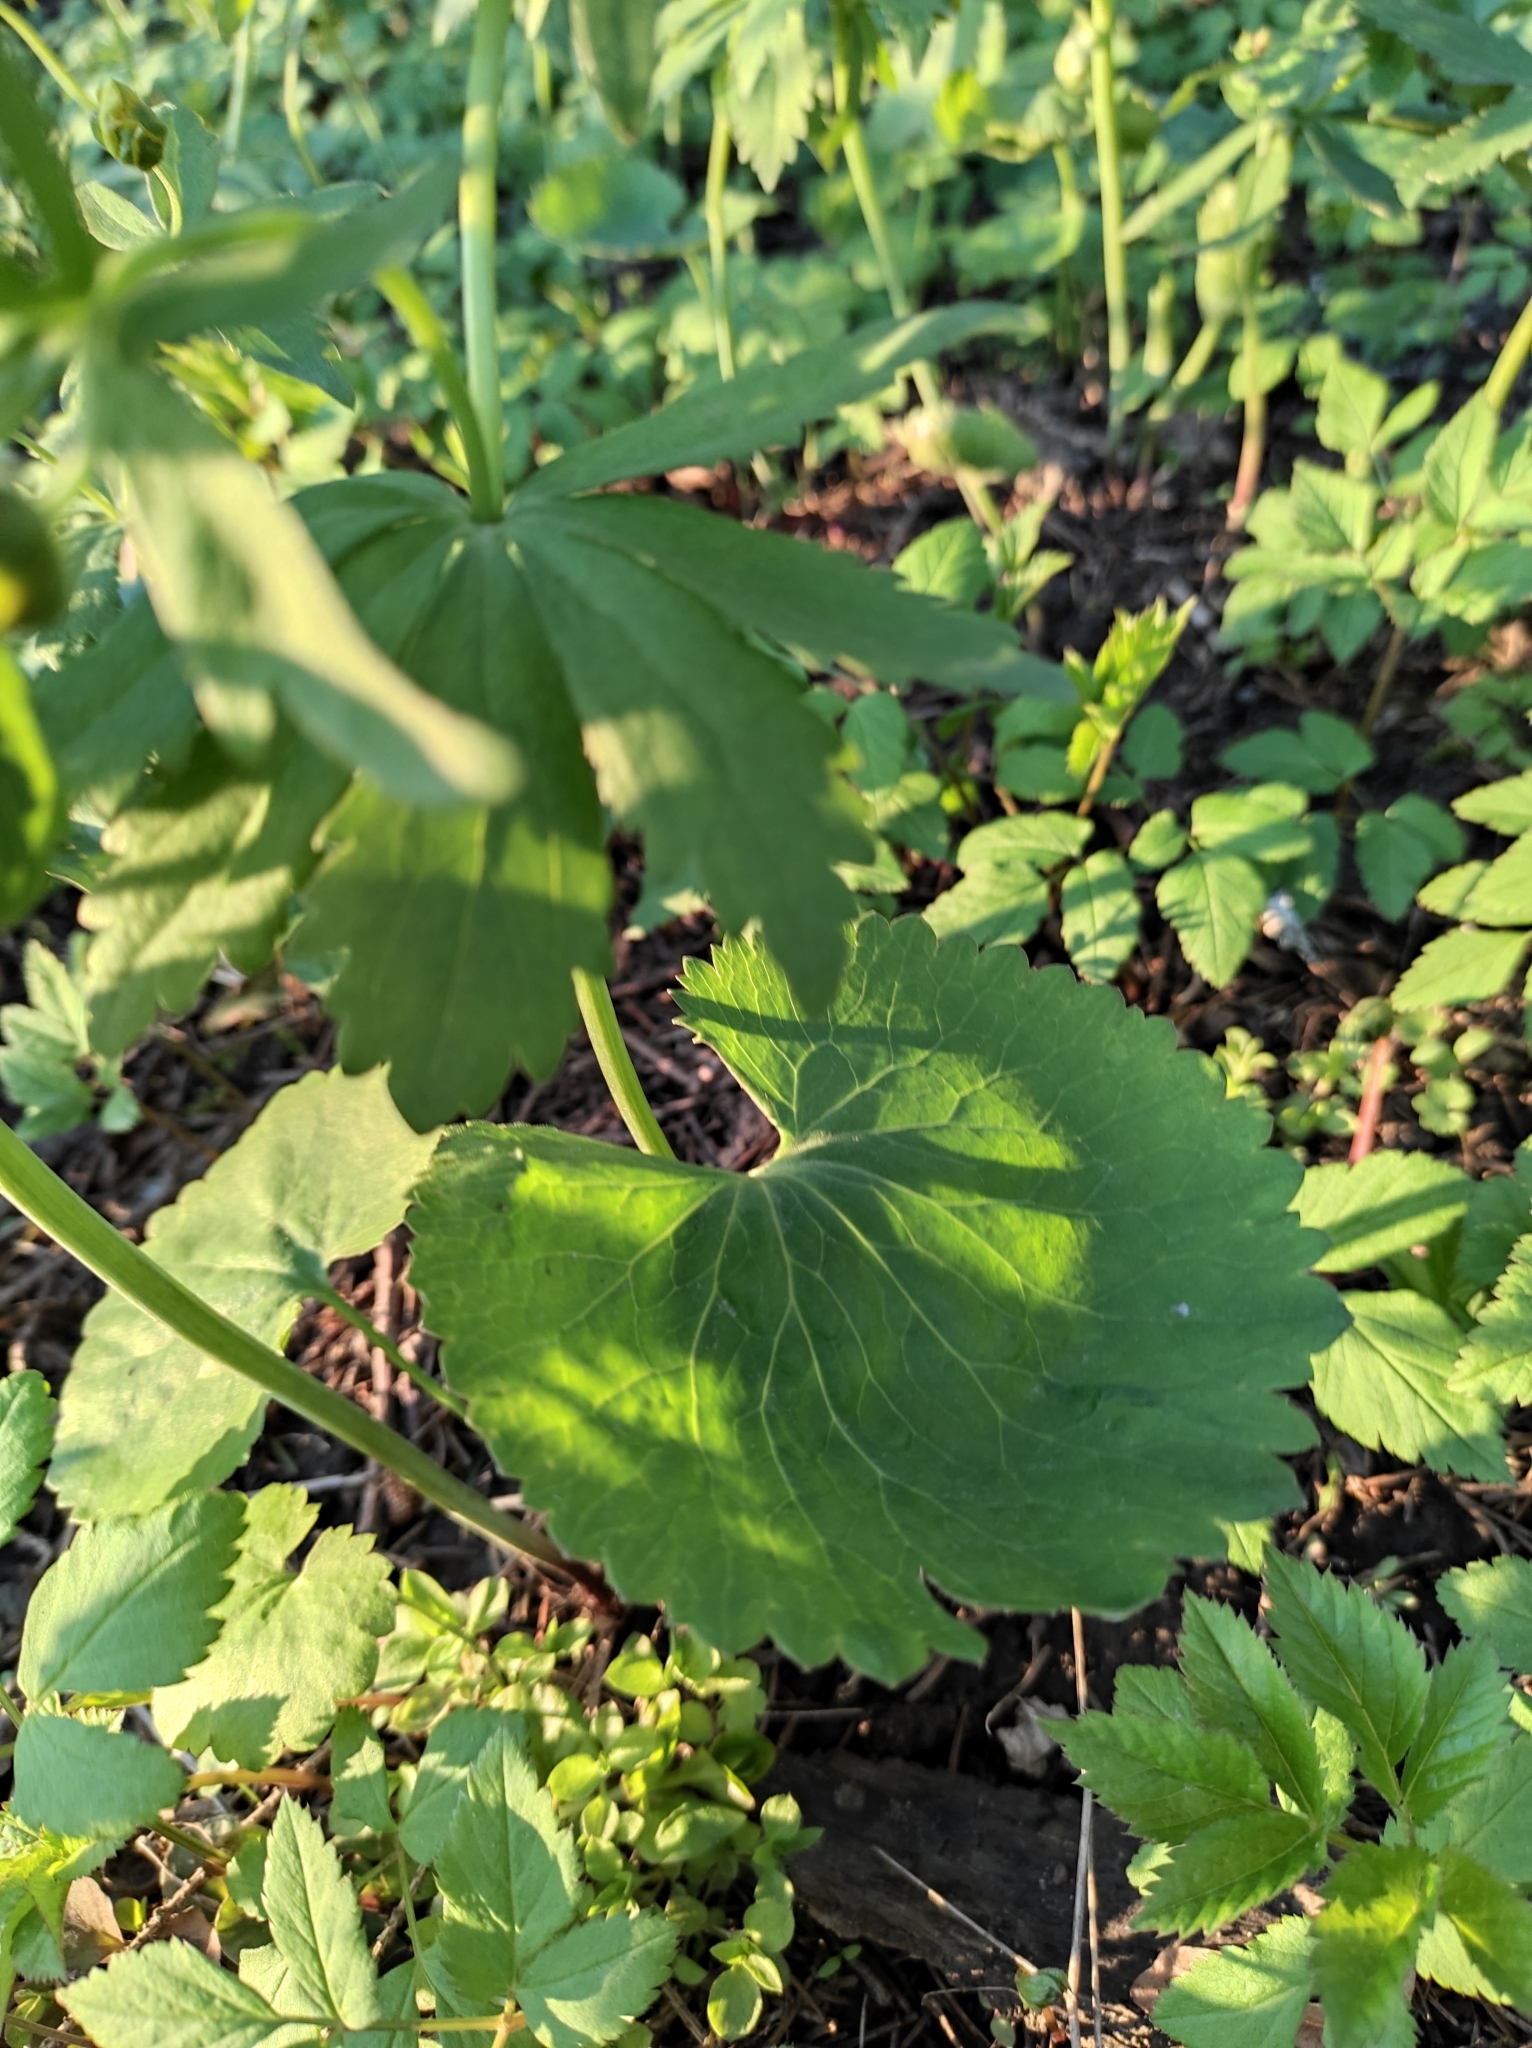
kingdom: Plantae
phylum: Tracheophyta
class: Magnoliopsida
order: Ranunculales
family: Ranunculaceae
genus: Ranunculus
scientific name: Ranunculus cassubicus
